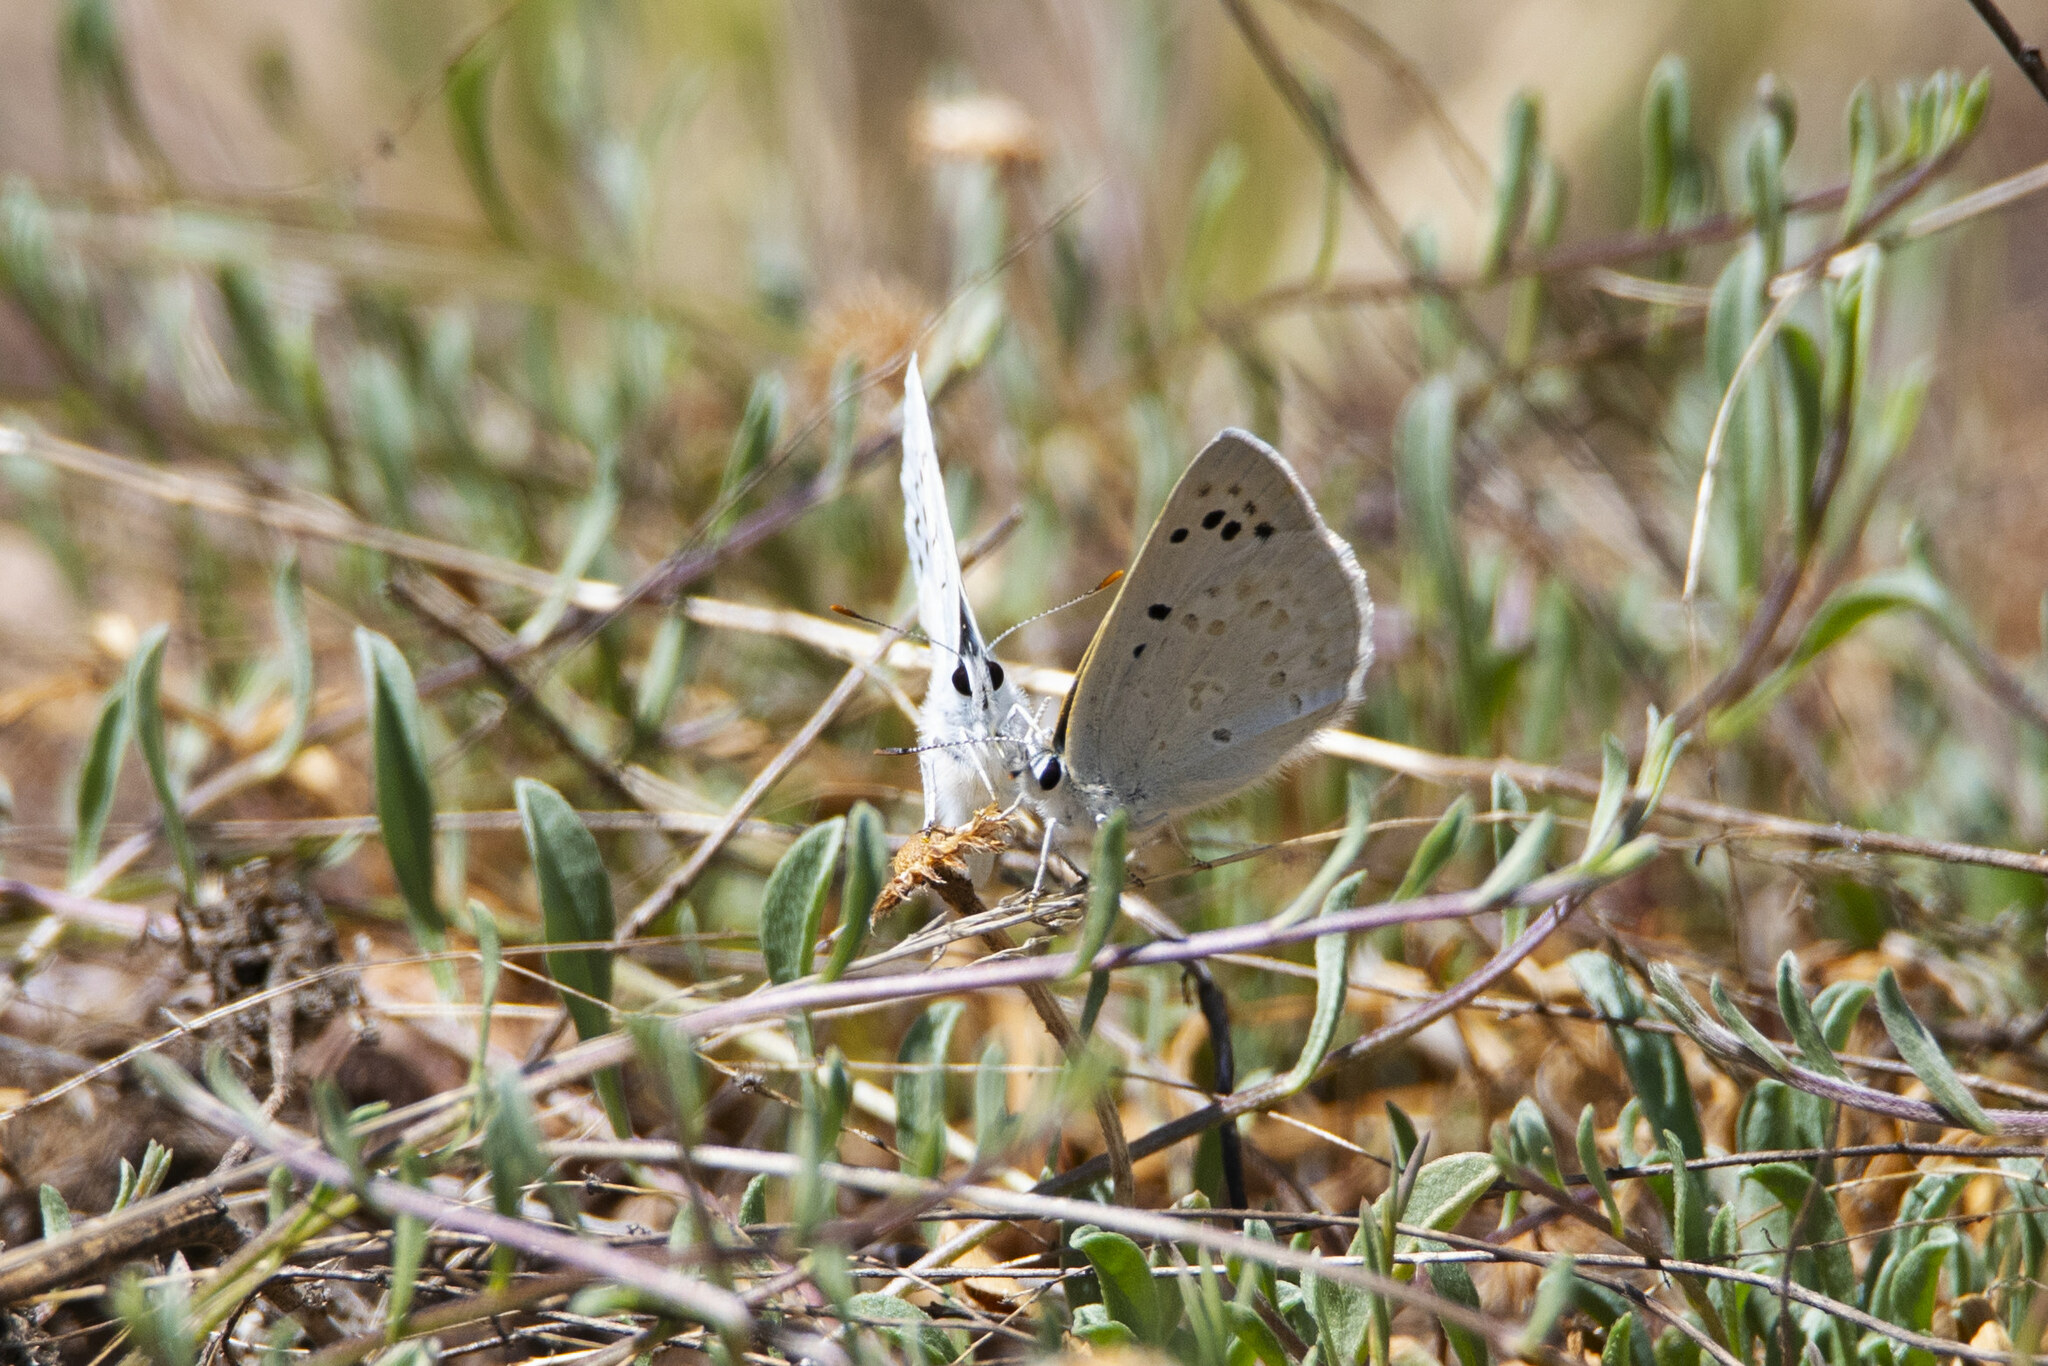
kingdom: Animalia
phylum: Arthropoda
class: Insecta
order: Lepidoptera
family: Lycaenidae
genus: Tharsalea
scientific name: Tharsalea heteronea
